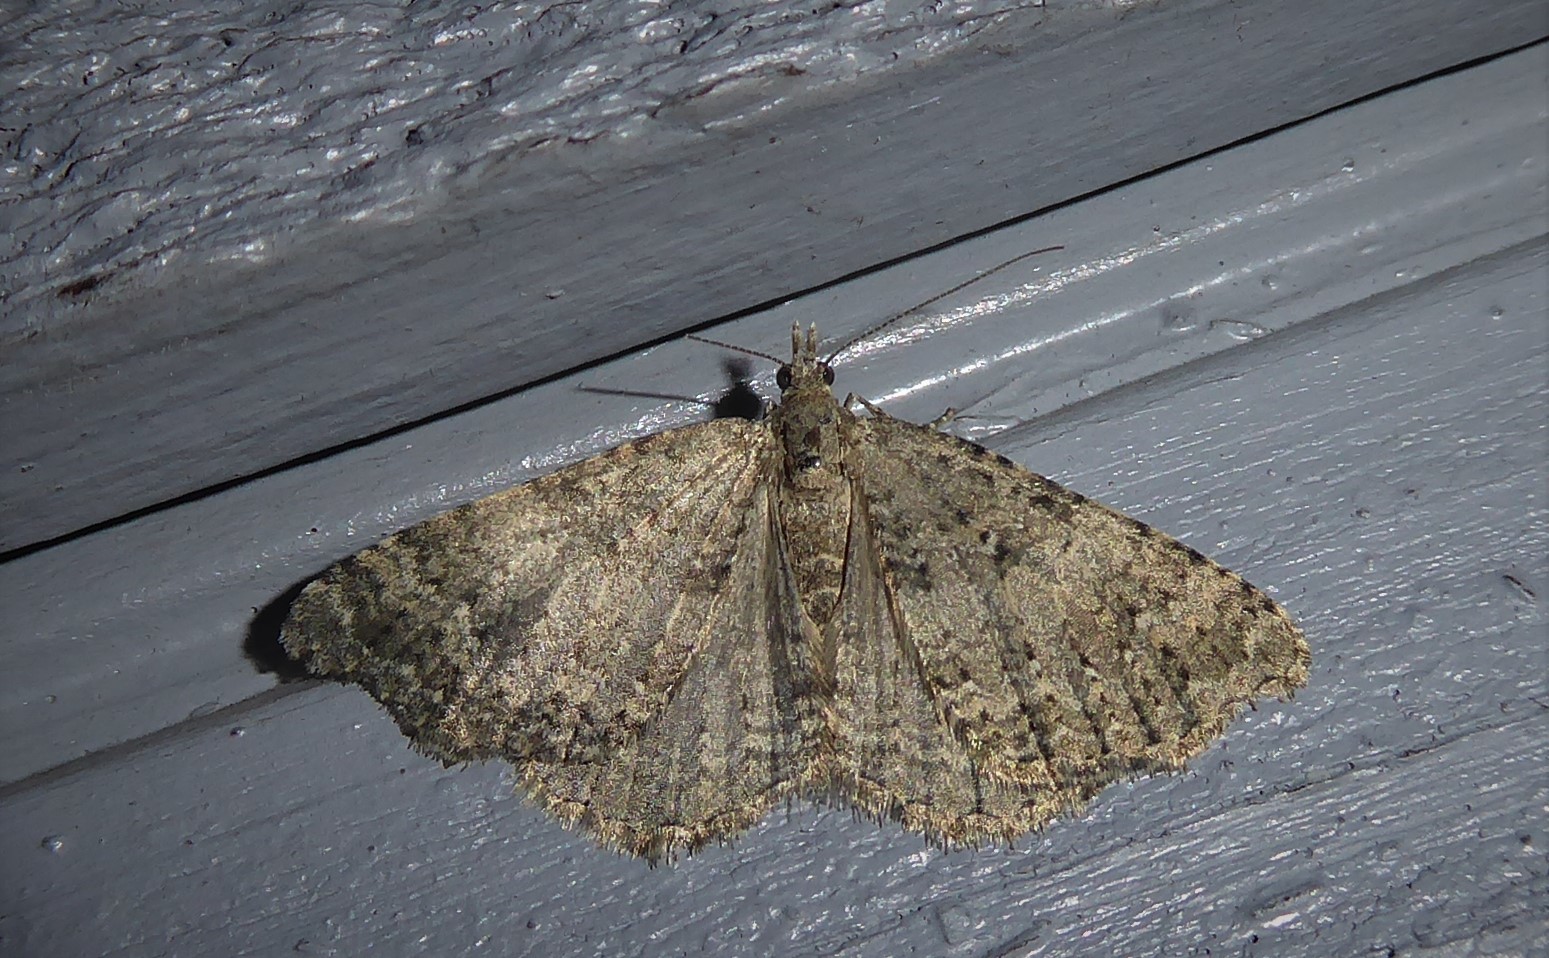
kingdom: Animalia
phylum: Arthropoda
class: Insecta
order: Lepidoptera
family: Geometridae
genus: Helastia
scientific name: Helastia corcularia
